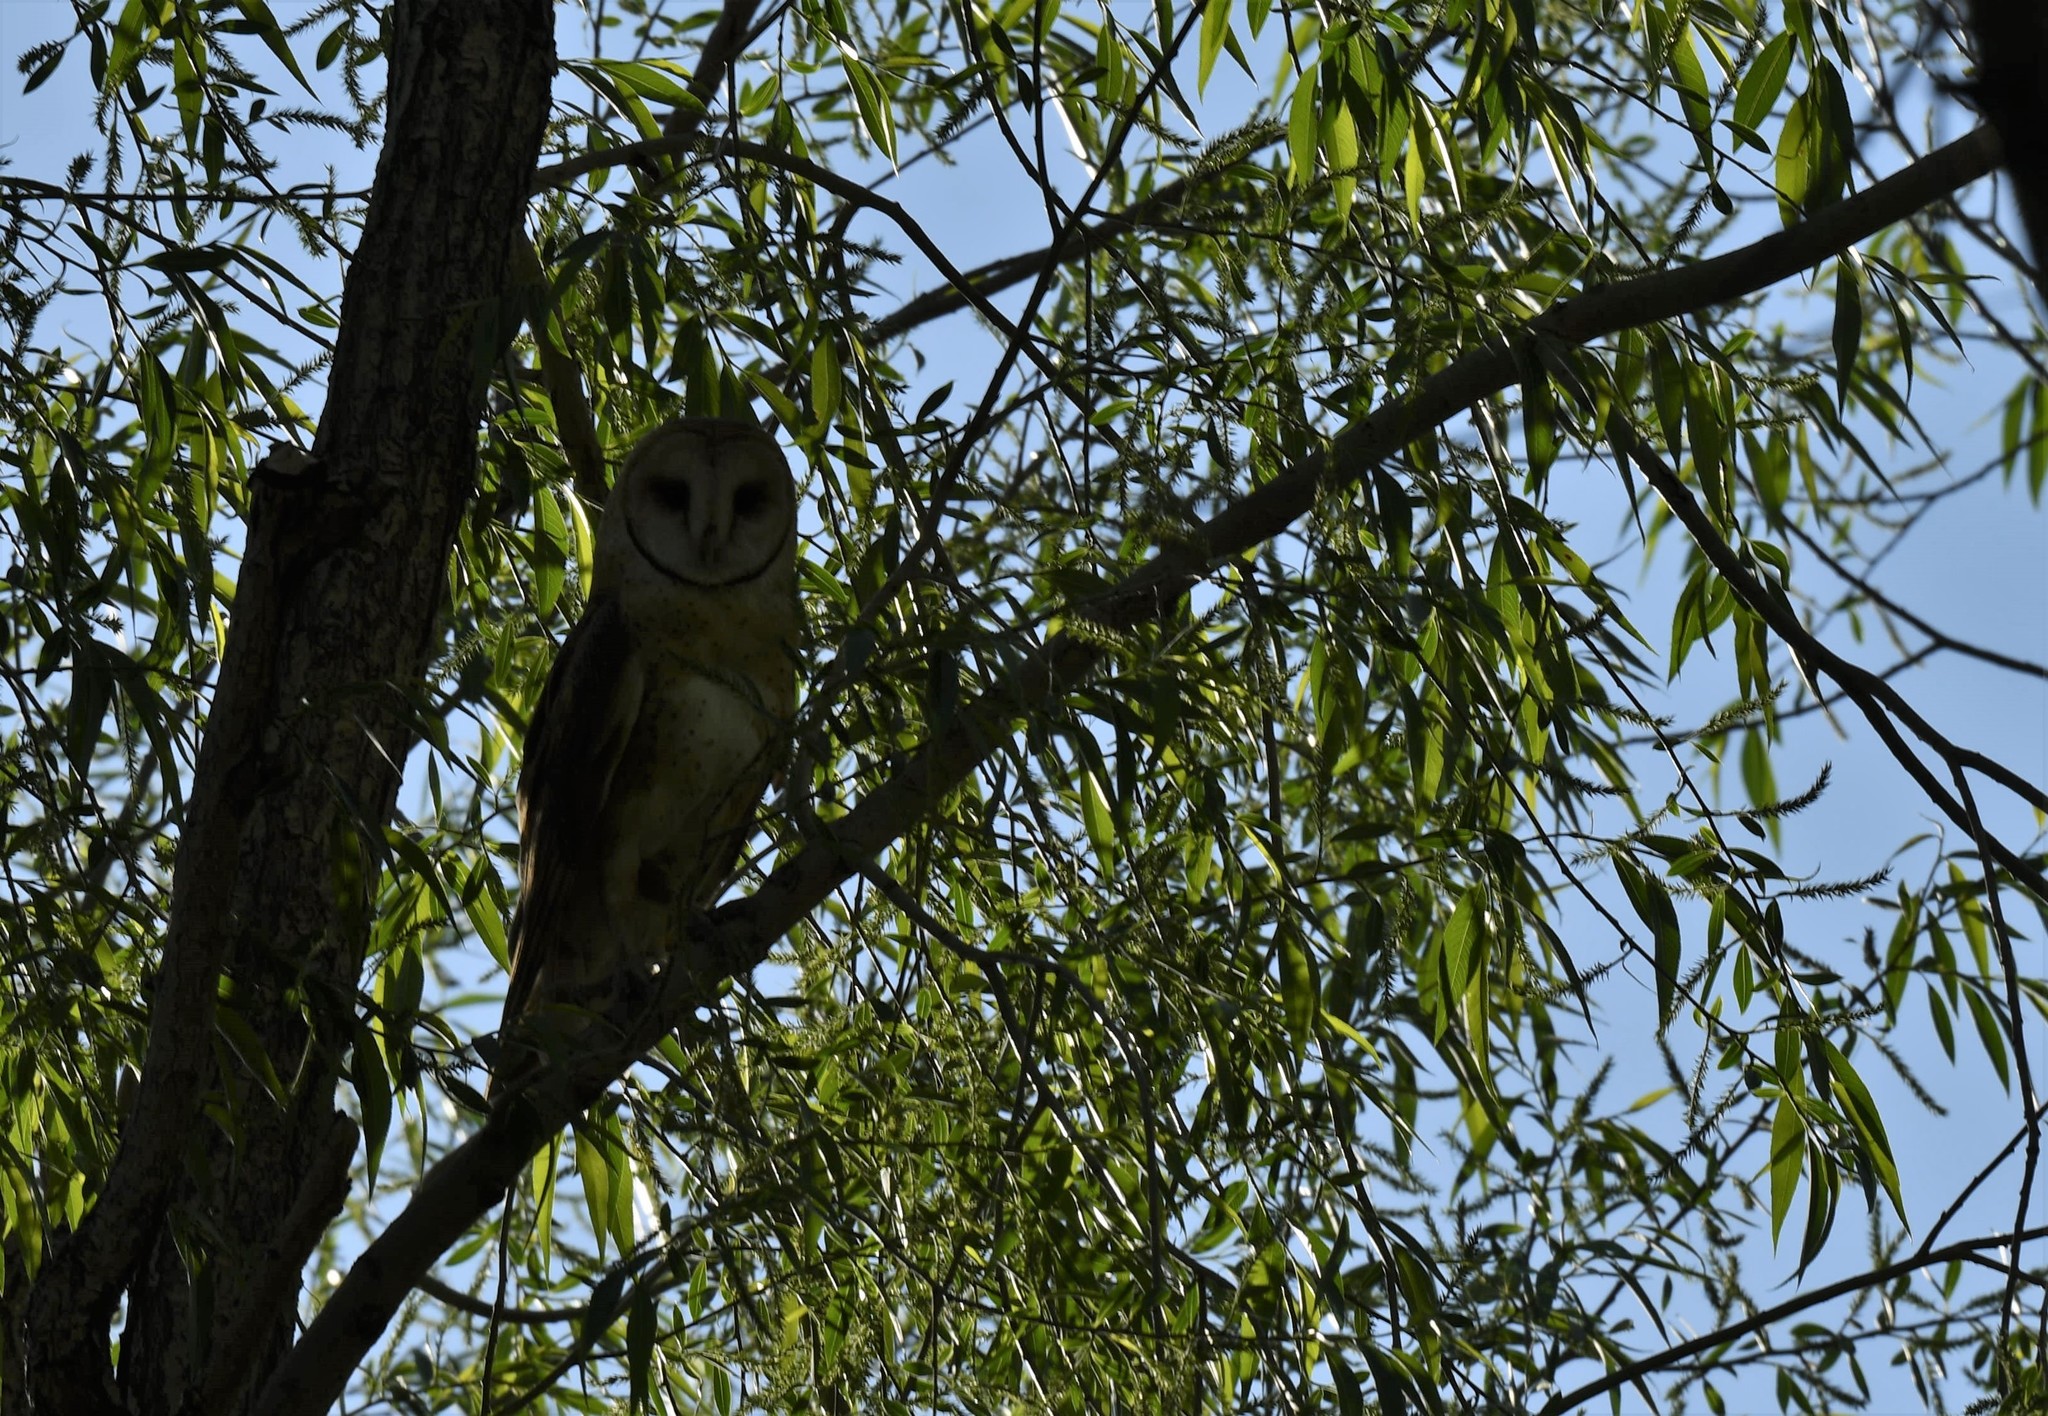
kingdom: Animalia
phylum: Chordata
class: Aves
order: Strigiformes
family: Tytonidae
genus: Tyto
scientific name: Tyto alba
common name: Barn owl
